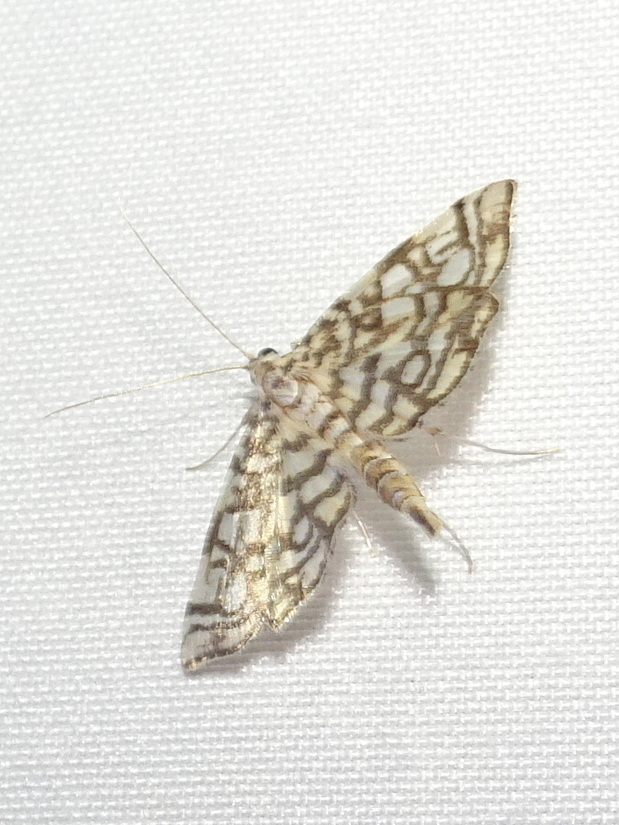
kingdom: Animalia
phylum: Arthropoda
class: Insecta
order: Lepidoptera
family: Crambidae
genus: Lygropia
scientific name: Lygropia rivulalis
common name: Bog lygropia moth
